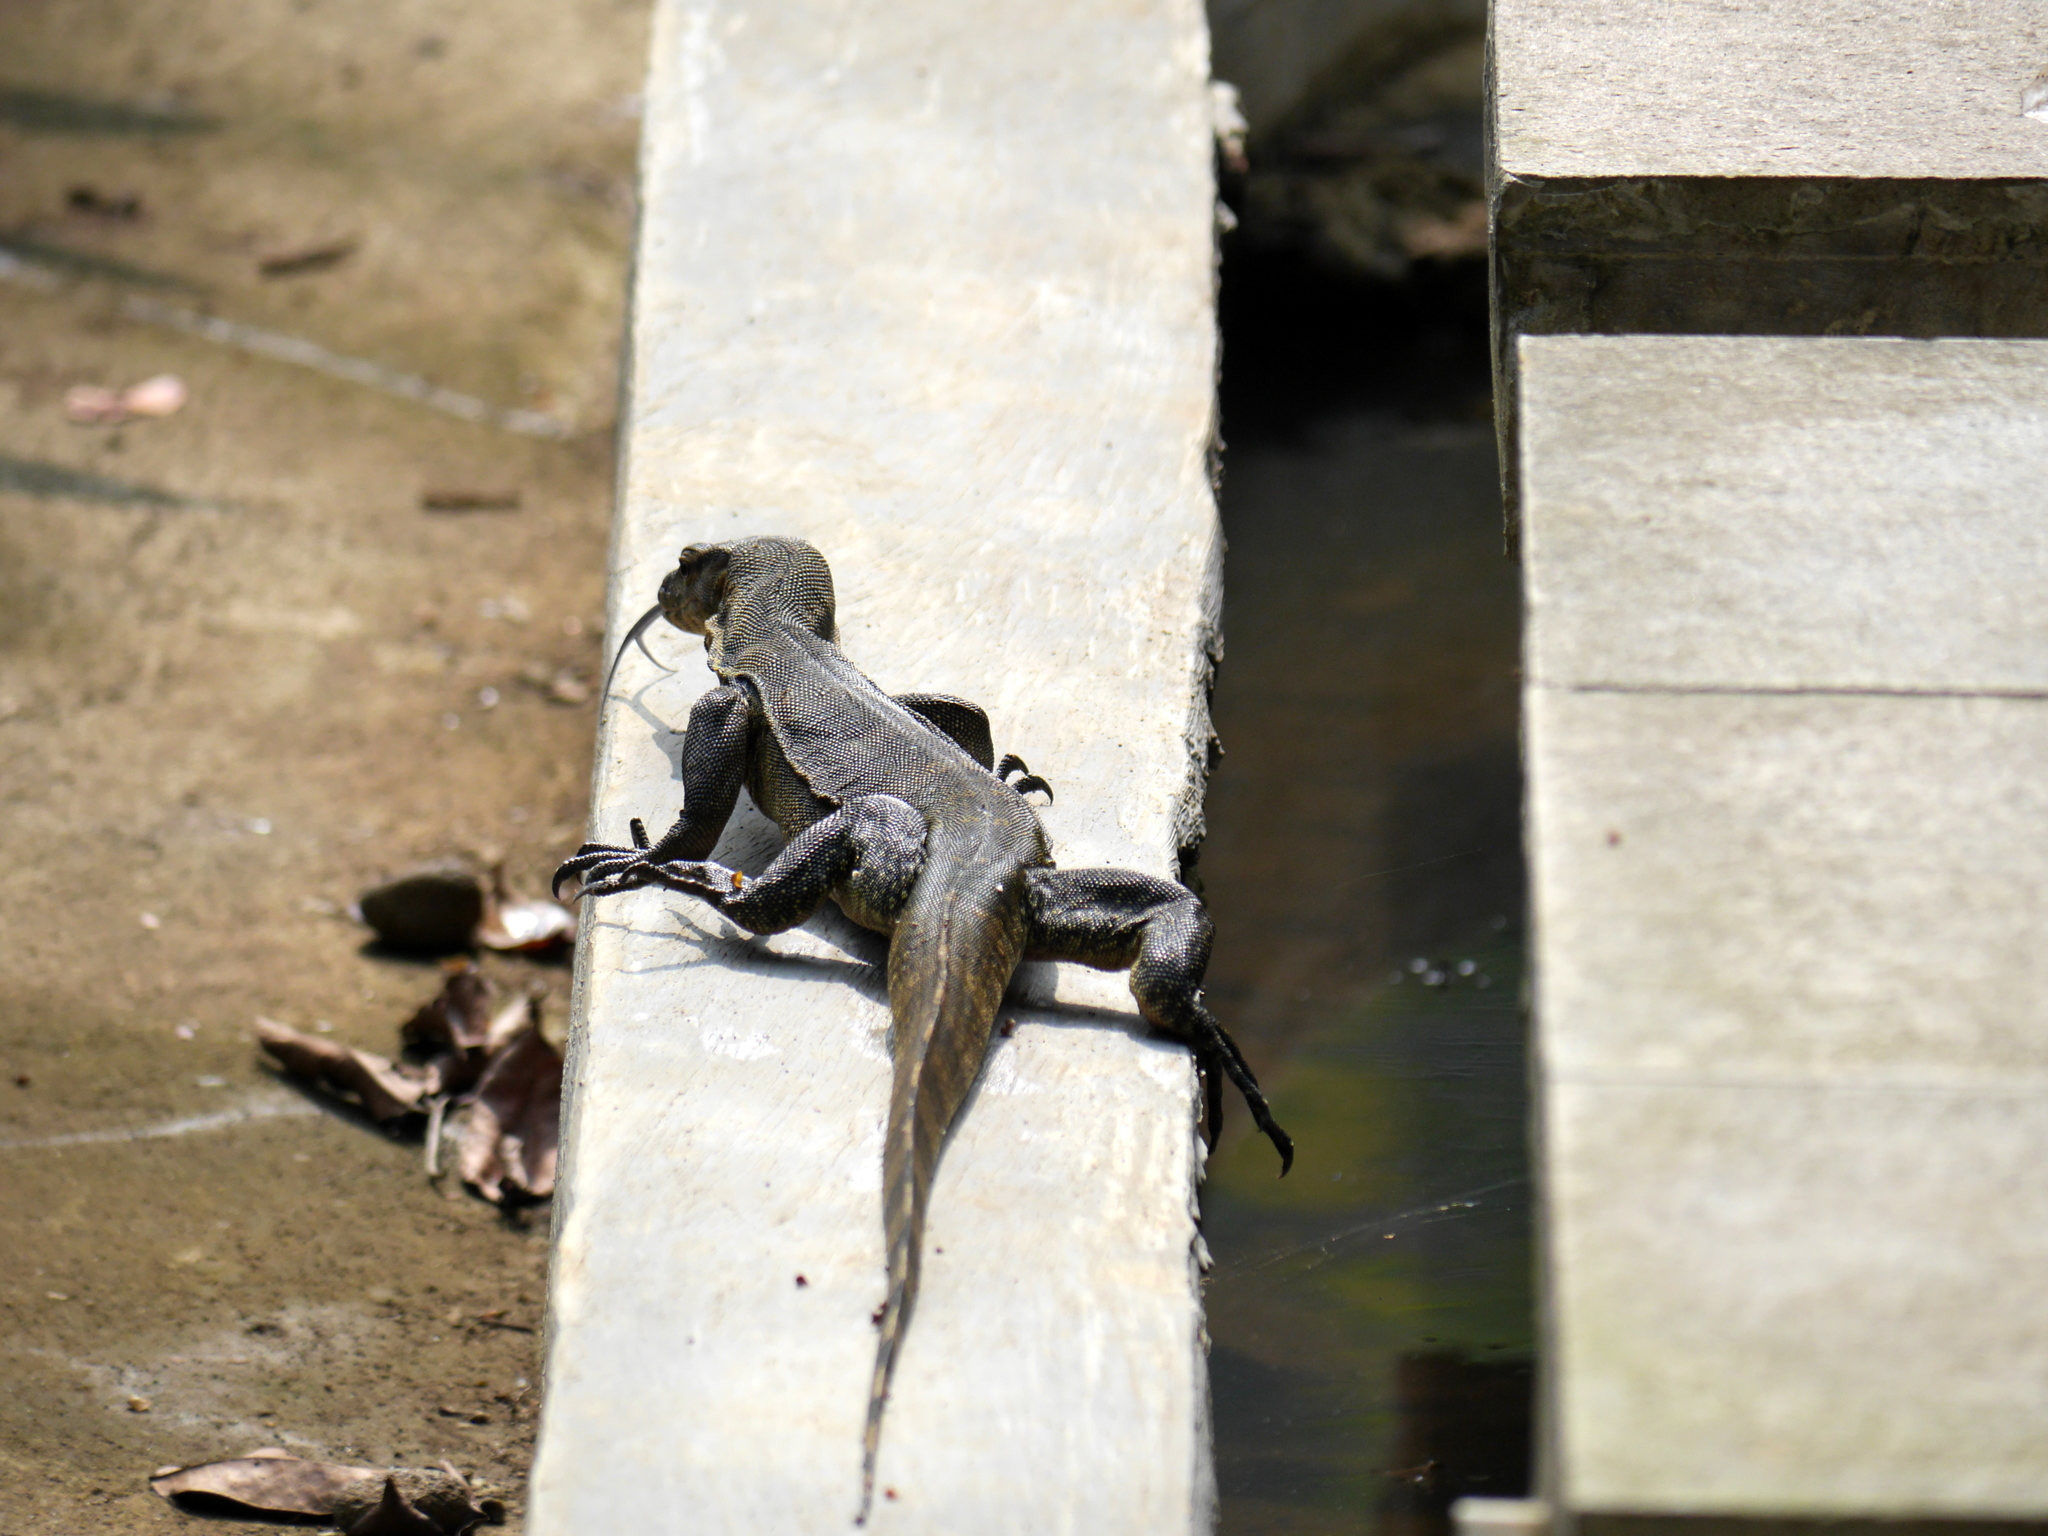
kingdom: Animalia
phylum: Chordata
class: Squamata
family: Varanidae
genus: Varanus
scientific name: Varanus salvator
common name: Common water monitor
